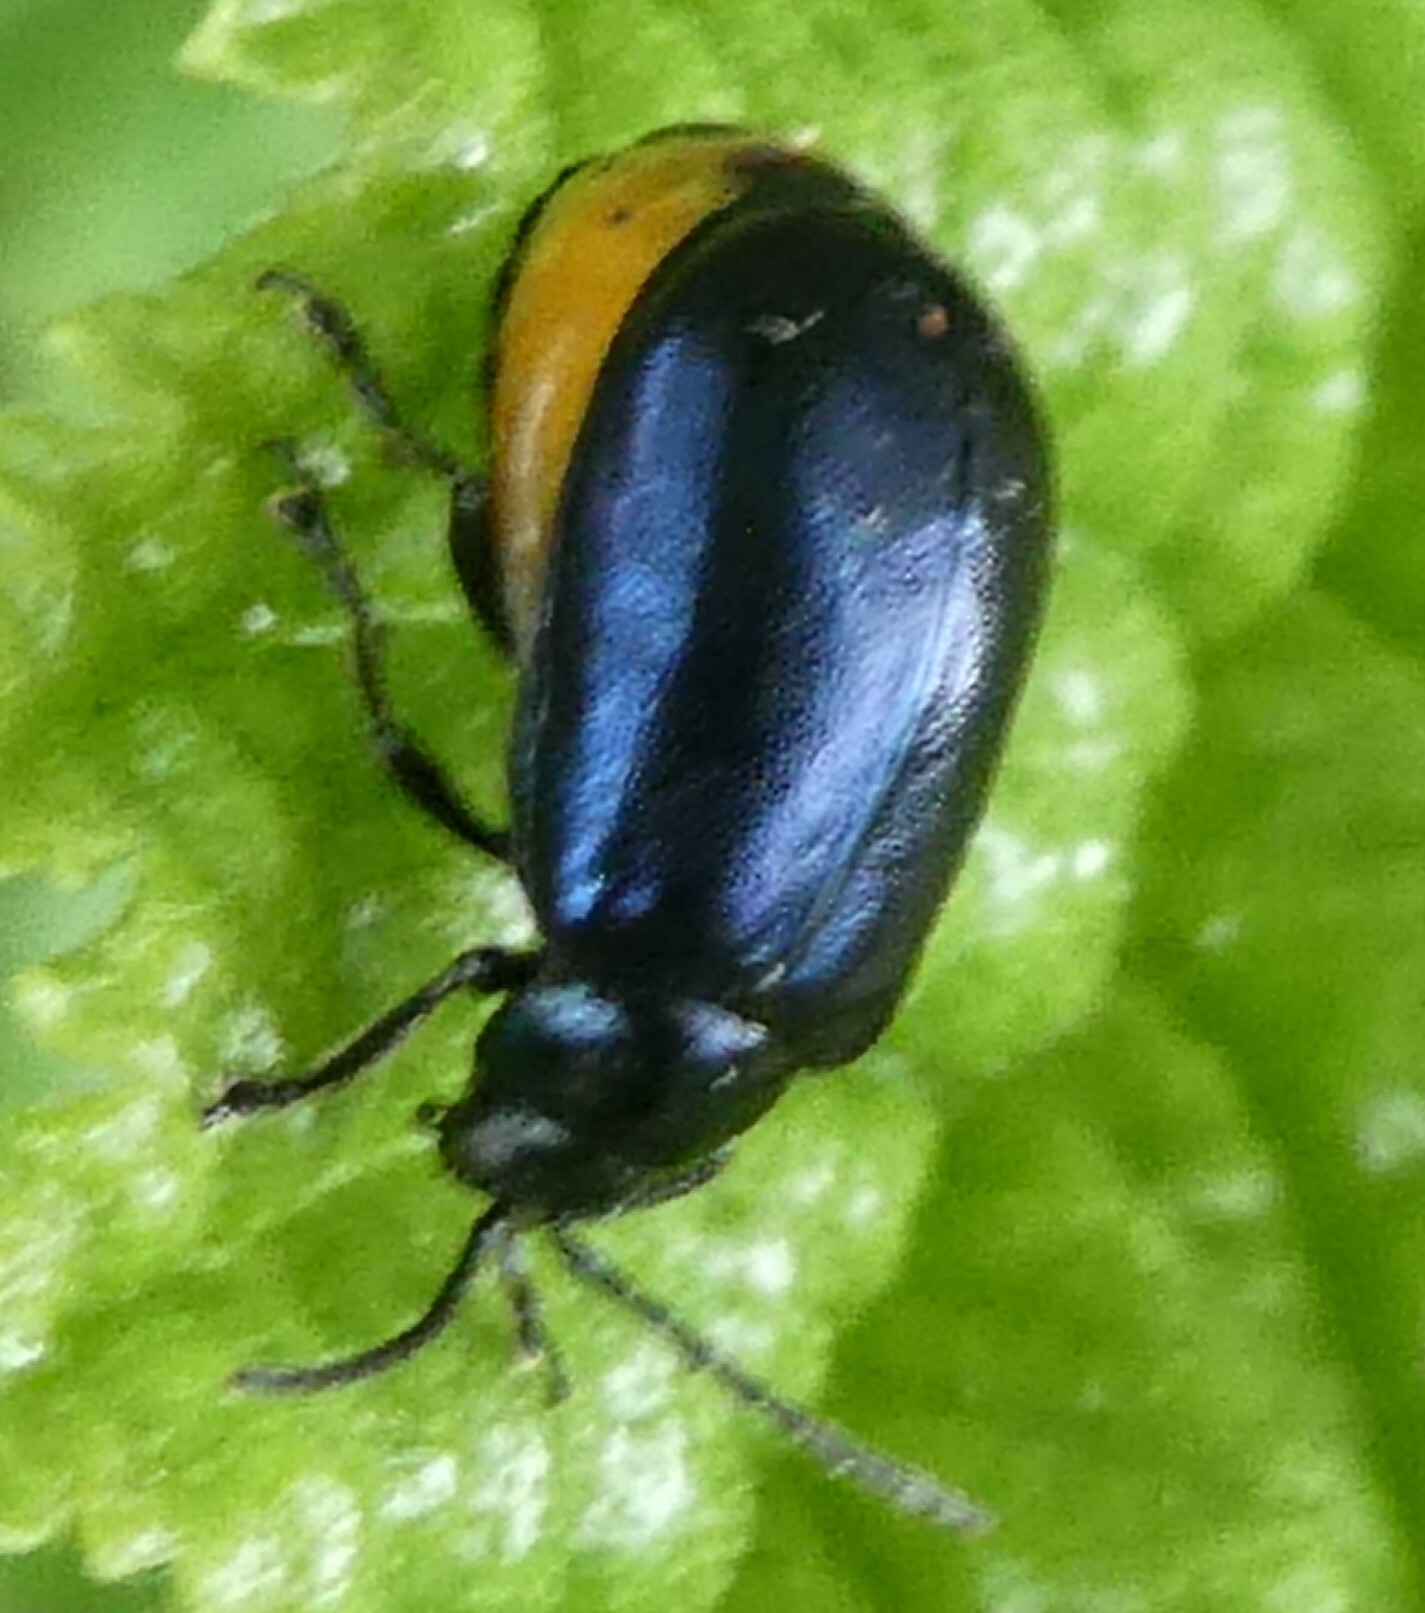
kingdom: Animalia
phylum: Arthropoda
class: Insecta
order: Coleoptera
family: Chrysomelidae
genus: Agelastica
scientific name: Agelastica alni
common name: Alder leaf beetle
